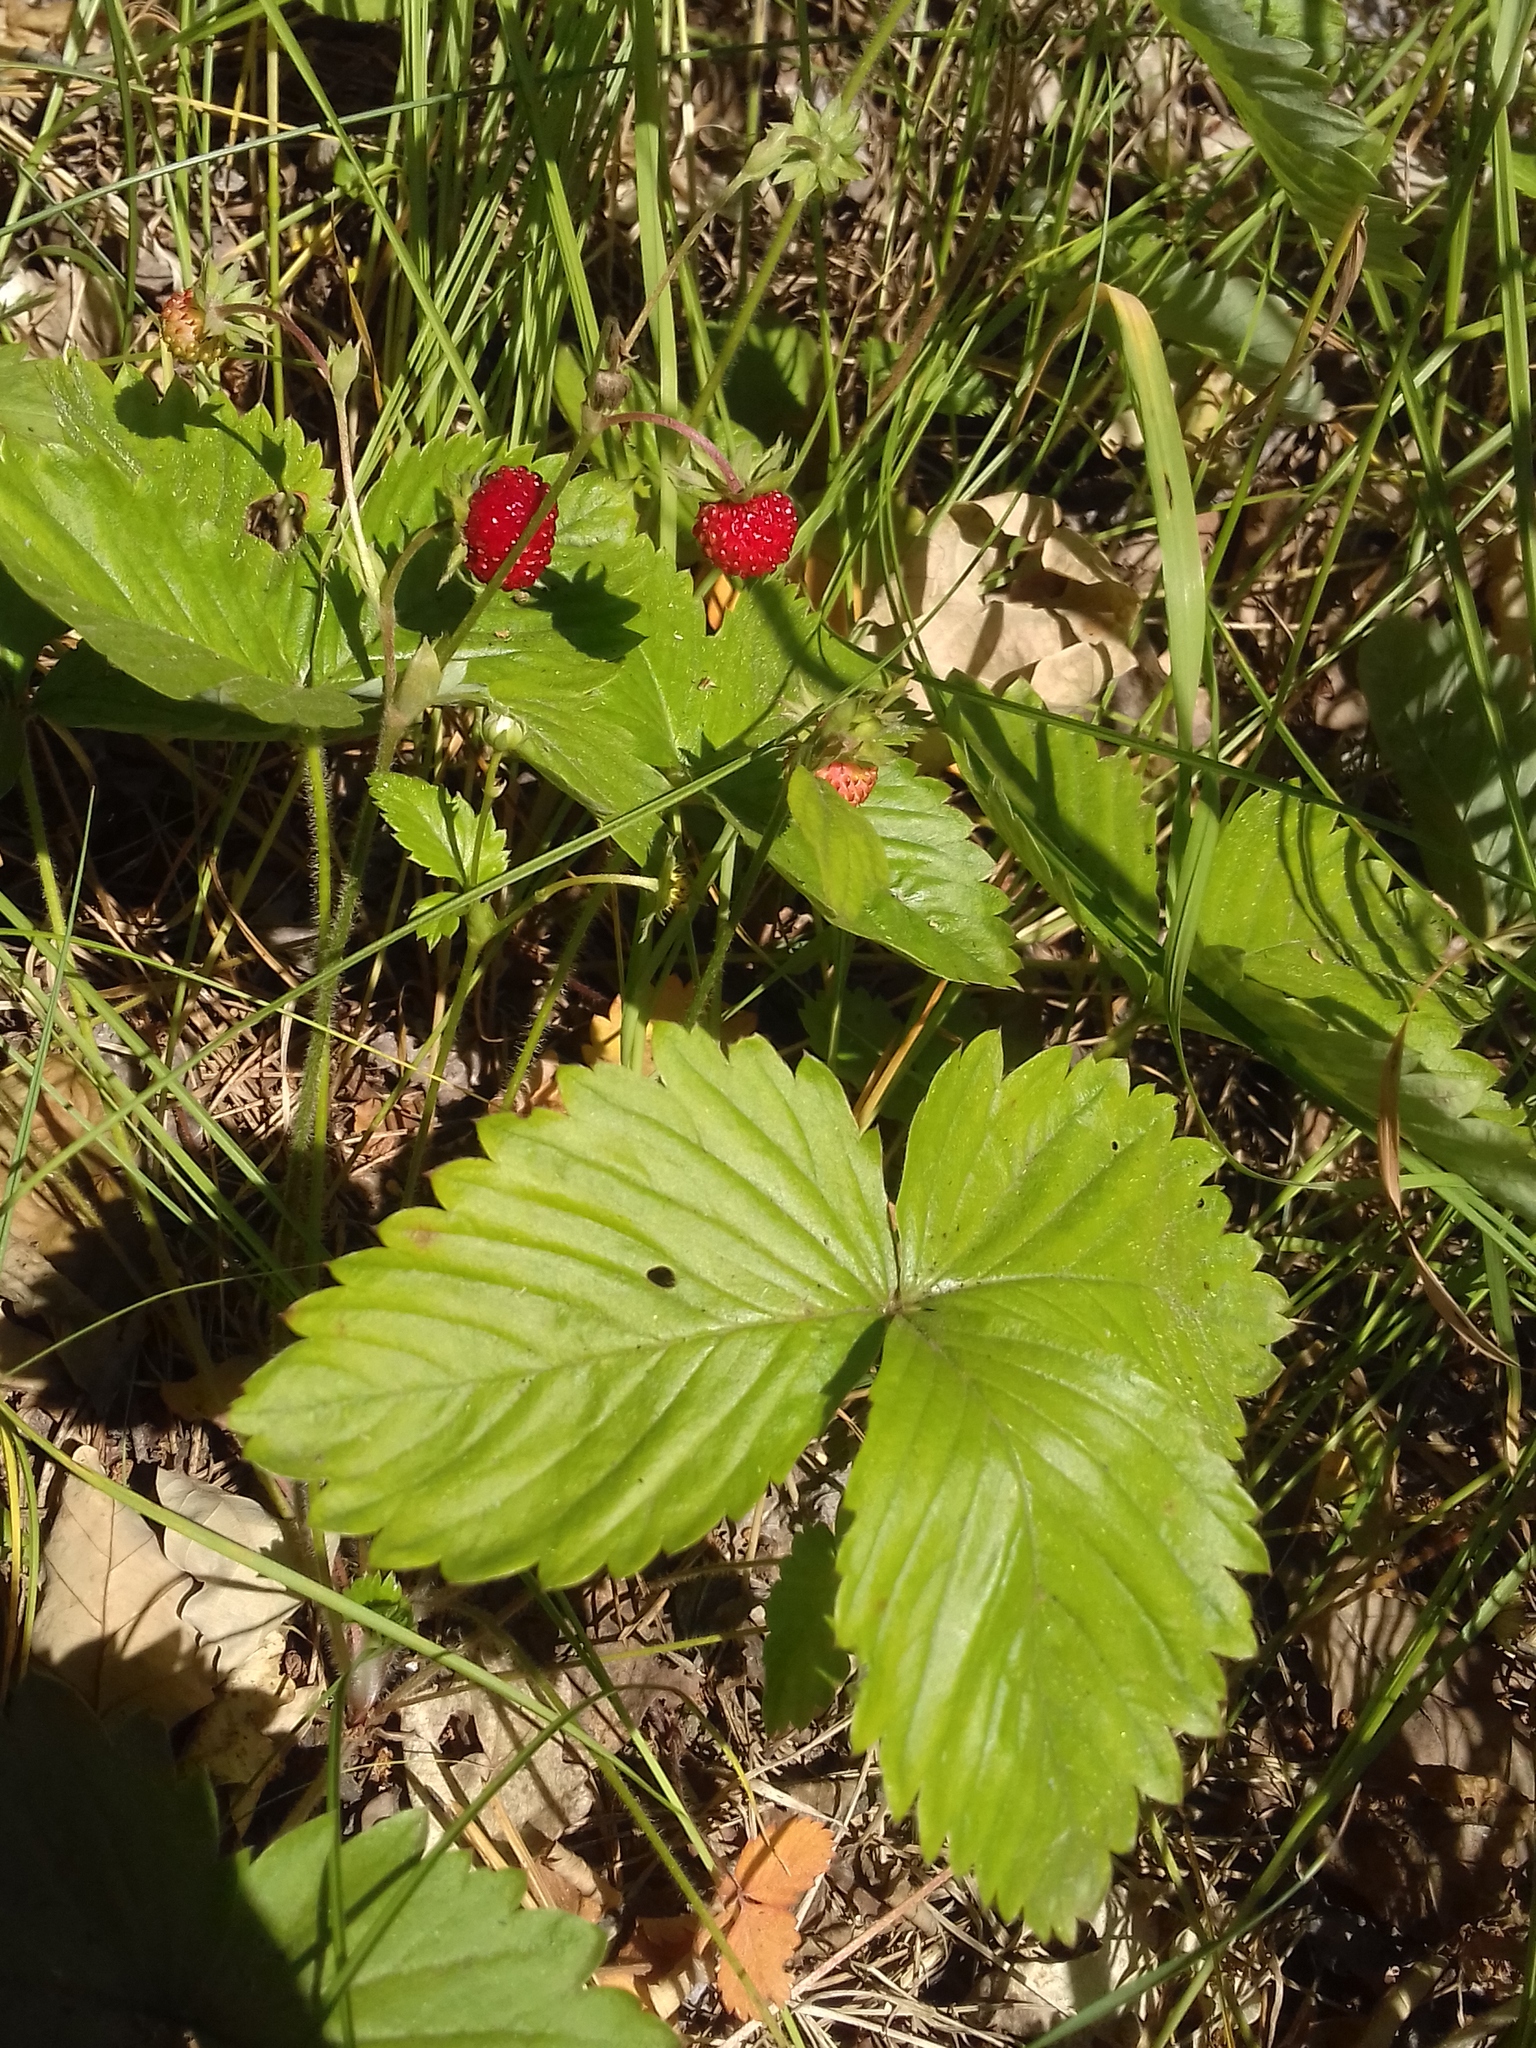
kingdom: Plantae
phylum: Tracheophyta
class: Magnoliopsida
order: Rosales
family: Rosaceae
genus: Fragaria
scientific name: Fragaria vesca
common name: Wild strawberry
